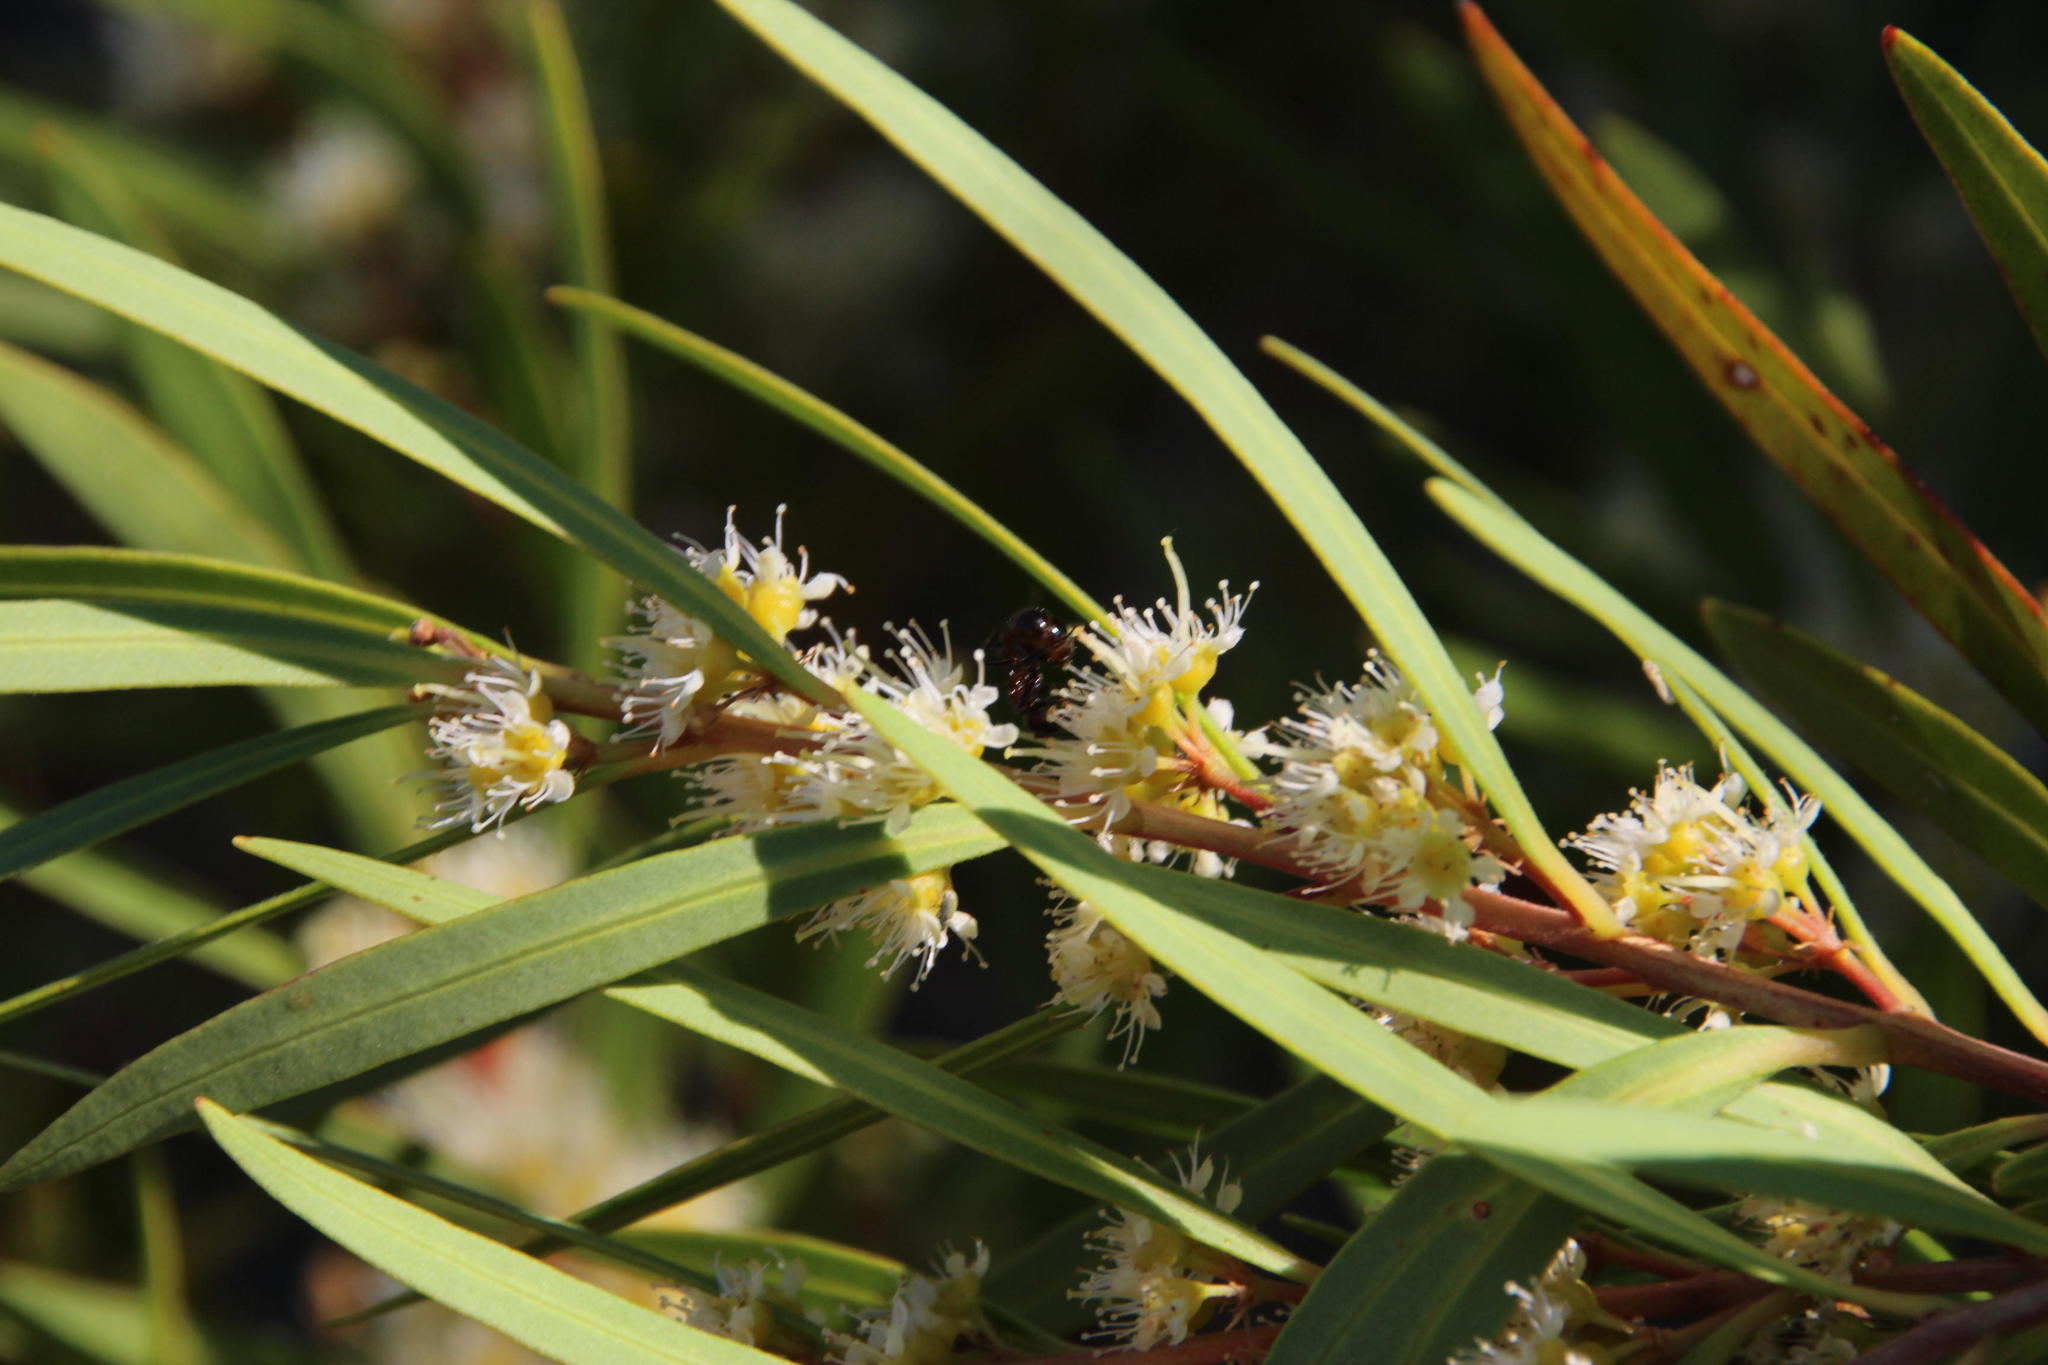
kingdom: Plantae
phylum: Tracheophyta
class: Magnoliopsida
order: Myrtales
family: Myrtaceae
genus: Callistemon
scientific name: Callistemon lanceolatus
